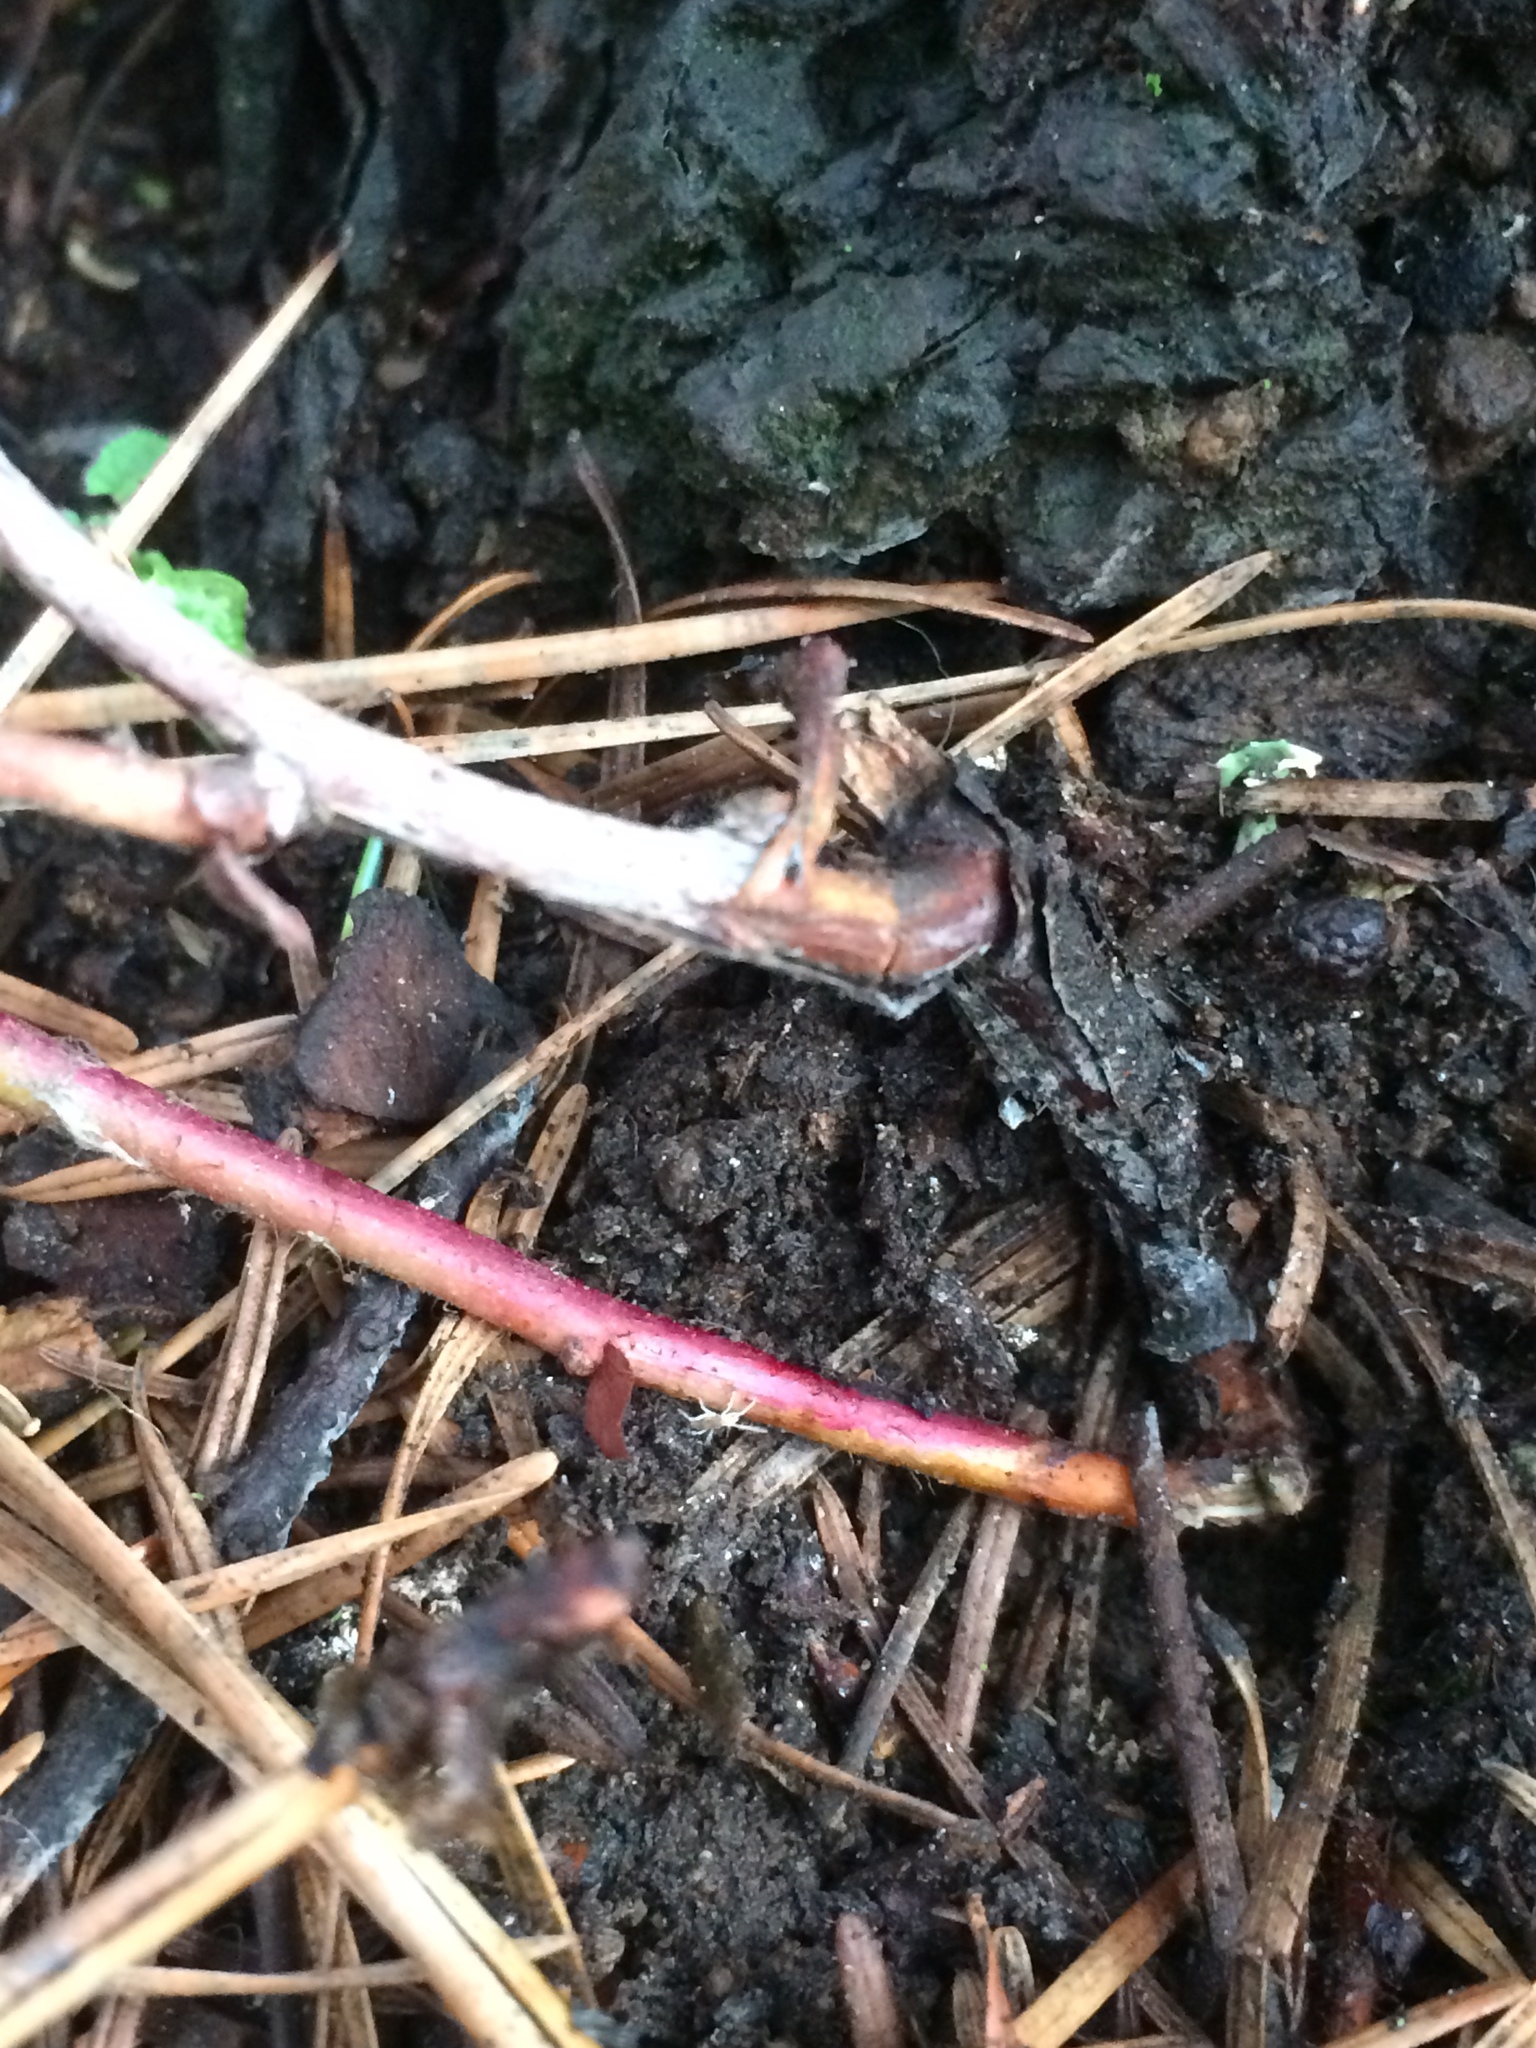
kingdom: Plantae
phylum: Tracheophyta
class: Magnoliopsida
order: Ericales
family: Ericaceae
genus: Gaultheria
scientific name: Gaultheria shallon
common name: Shallon
